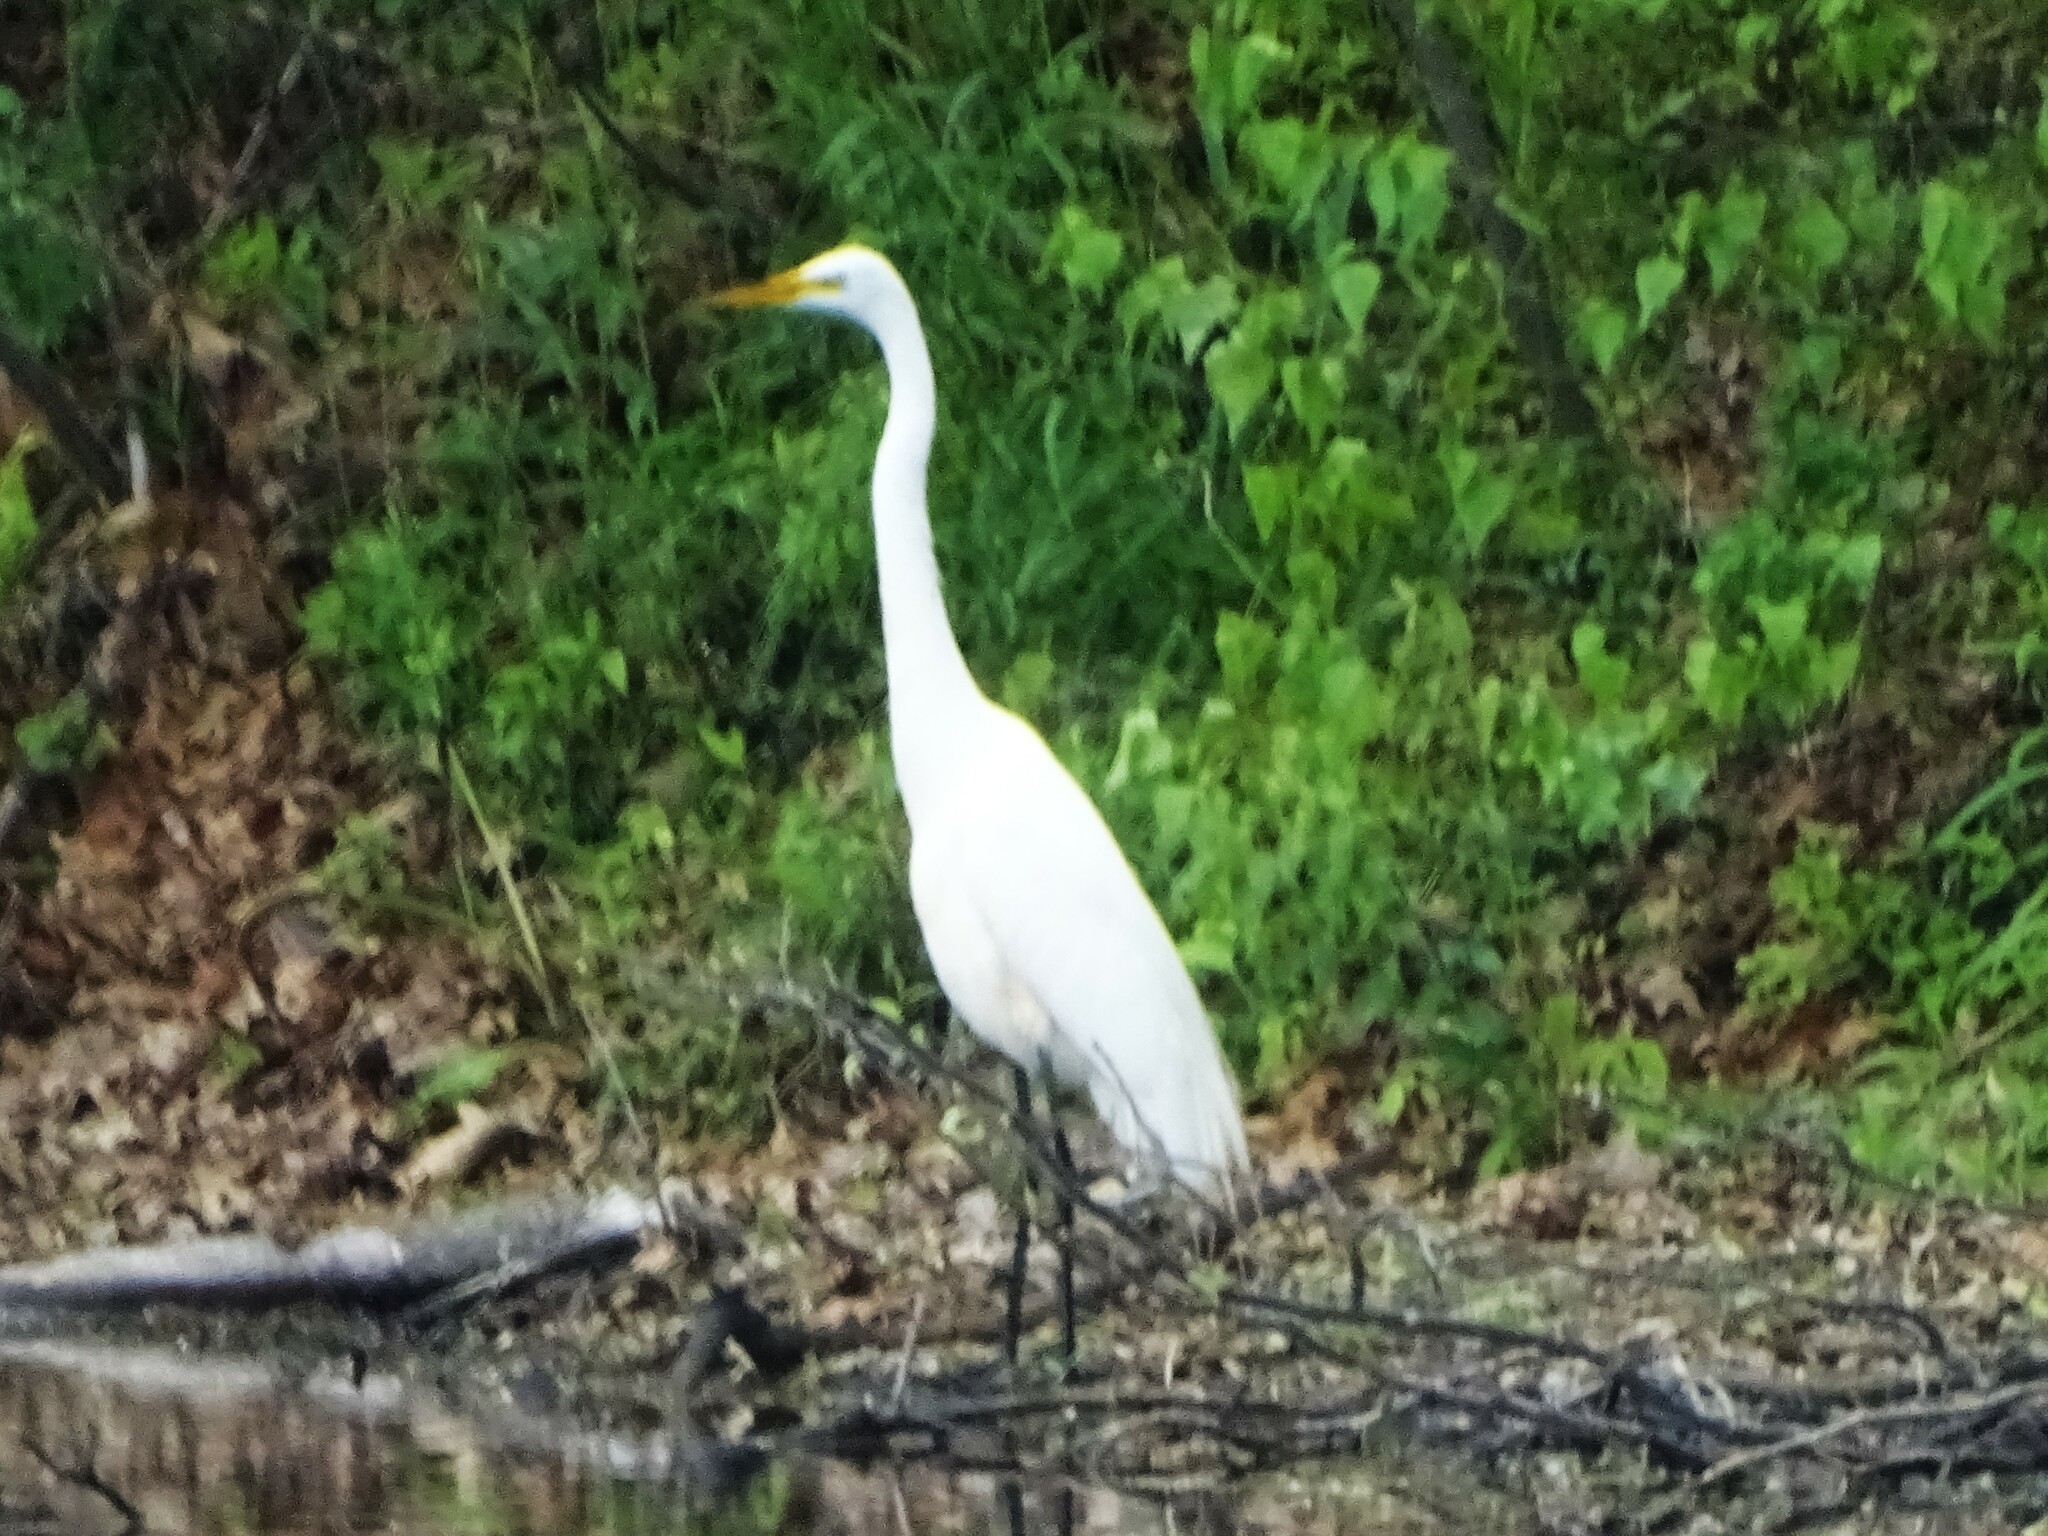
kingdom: Animalia
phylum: Chordata
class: Aves
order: Pelecaniformes
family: Ardeidae
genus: Ardea
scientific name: Ardea alba
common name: Great egret
